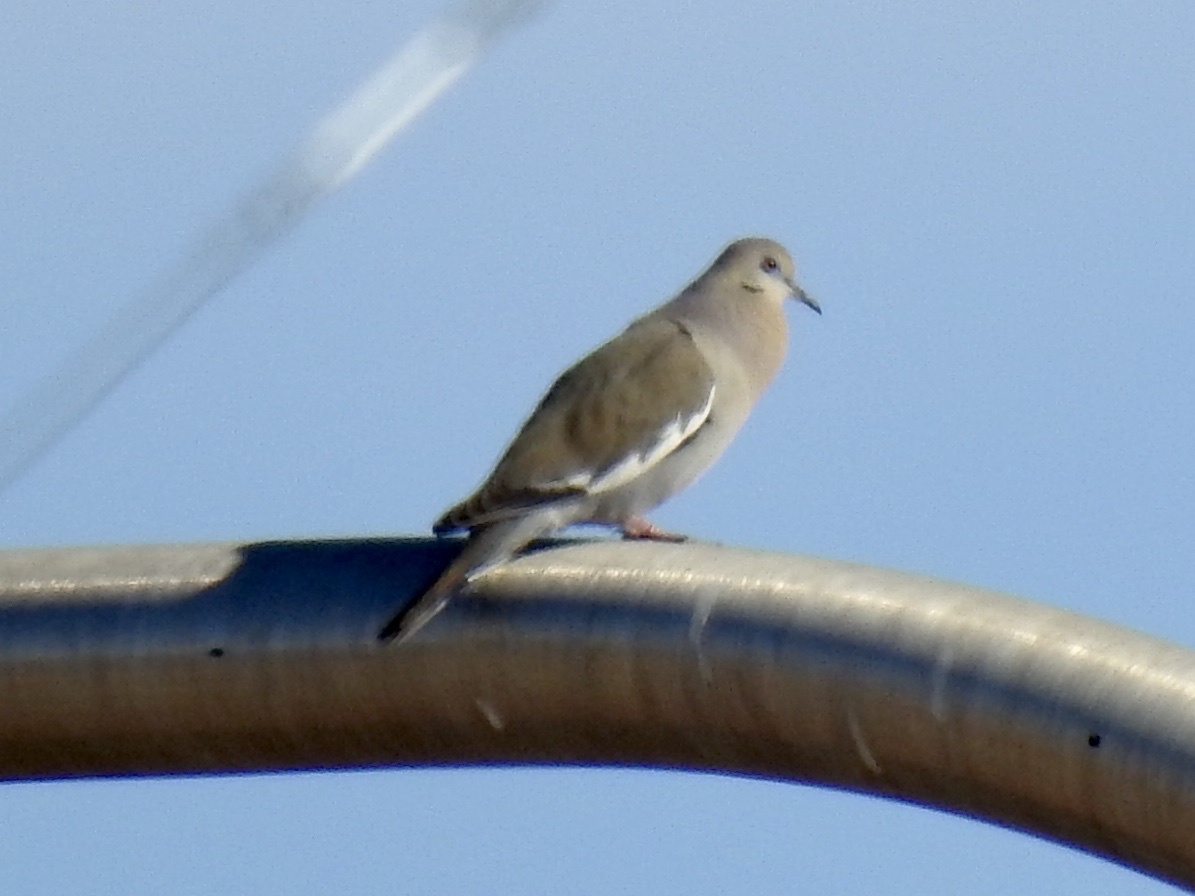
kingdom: Animalia
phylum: Chordata
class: Aves
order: Columbiformes
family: Columbidae
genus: Zenaida
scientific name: Zenaida asiatica
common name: White-winged dove
